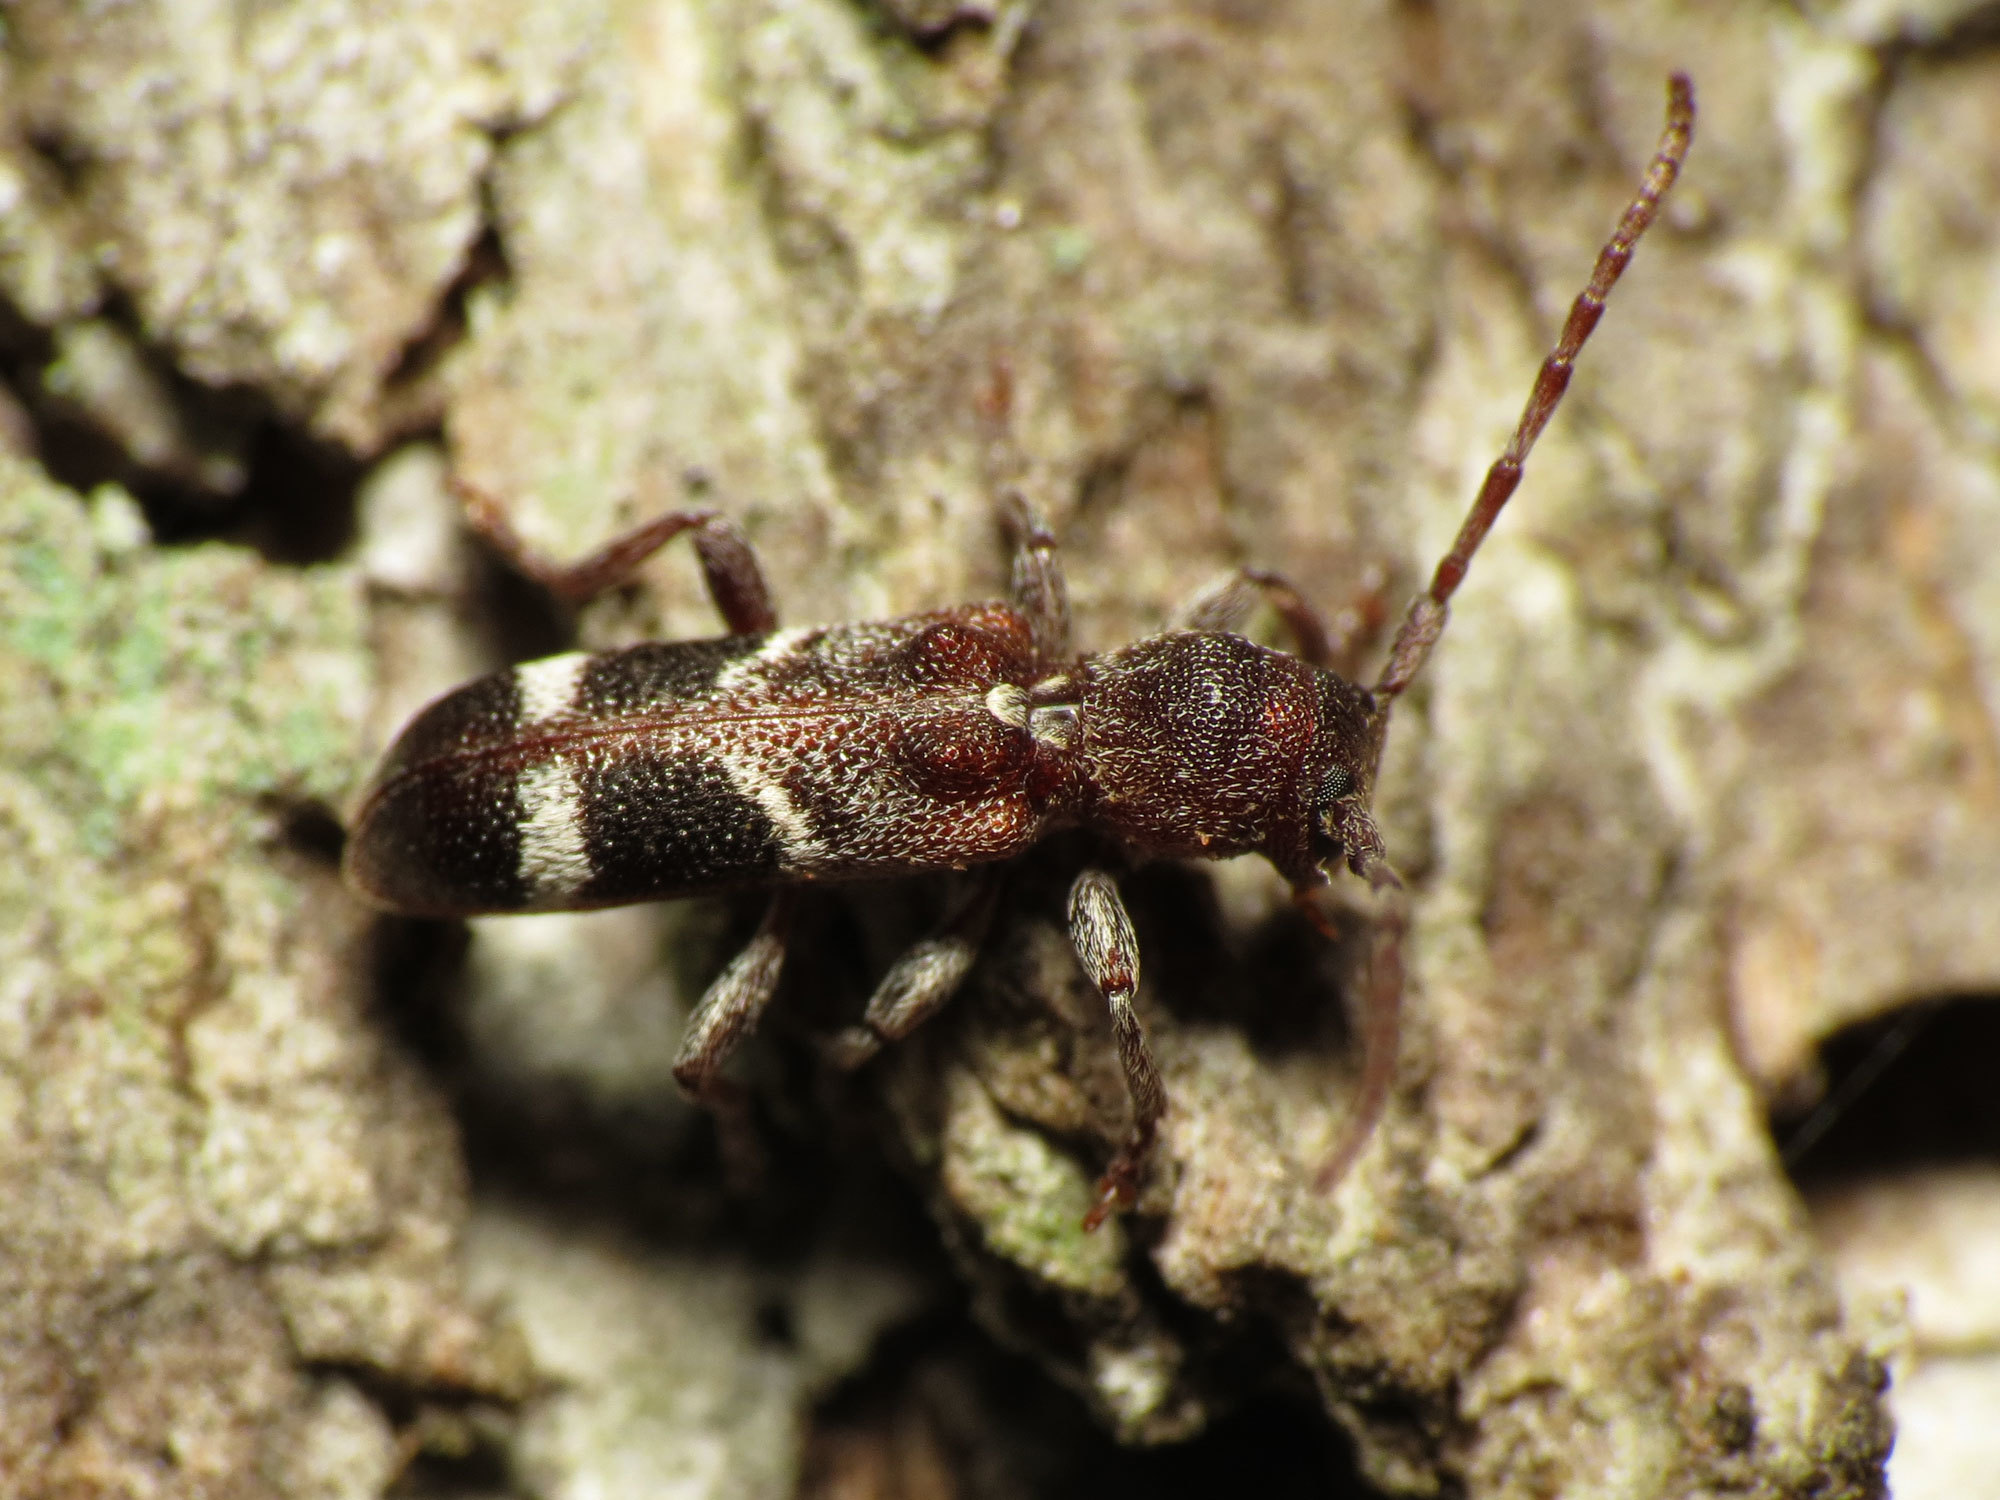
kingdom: Animalia
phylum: Arthropoda
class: Insecta
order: Coleoptera
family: Cerambycidae
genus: Psenocerus
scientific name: Psenocerus supernotatus
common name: Currant-tip borer
